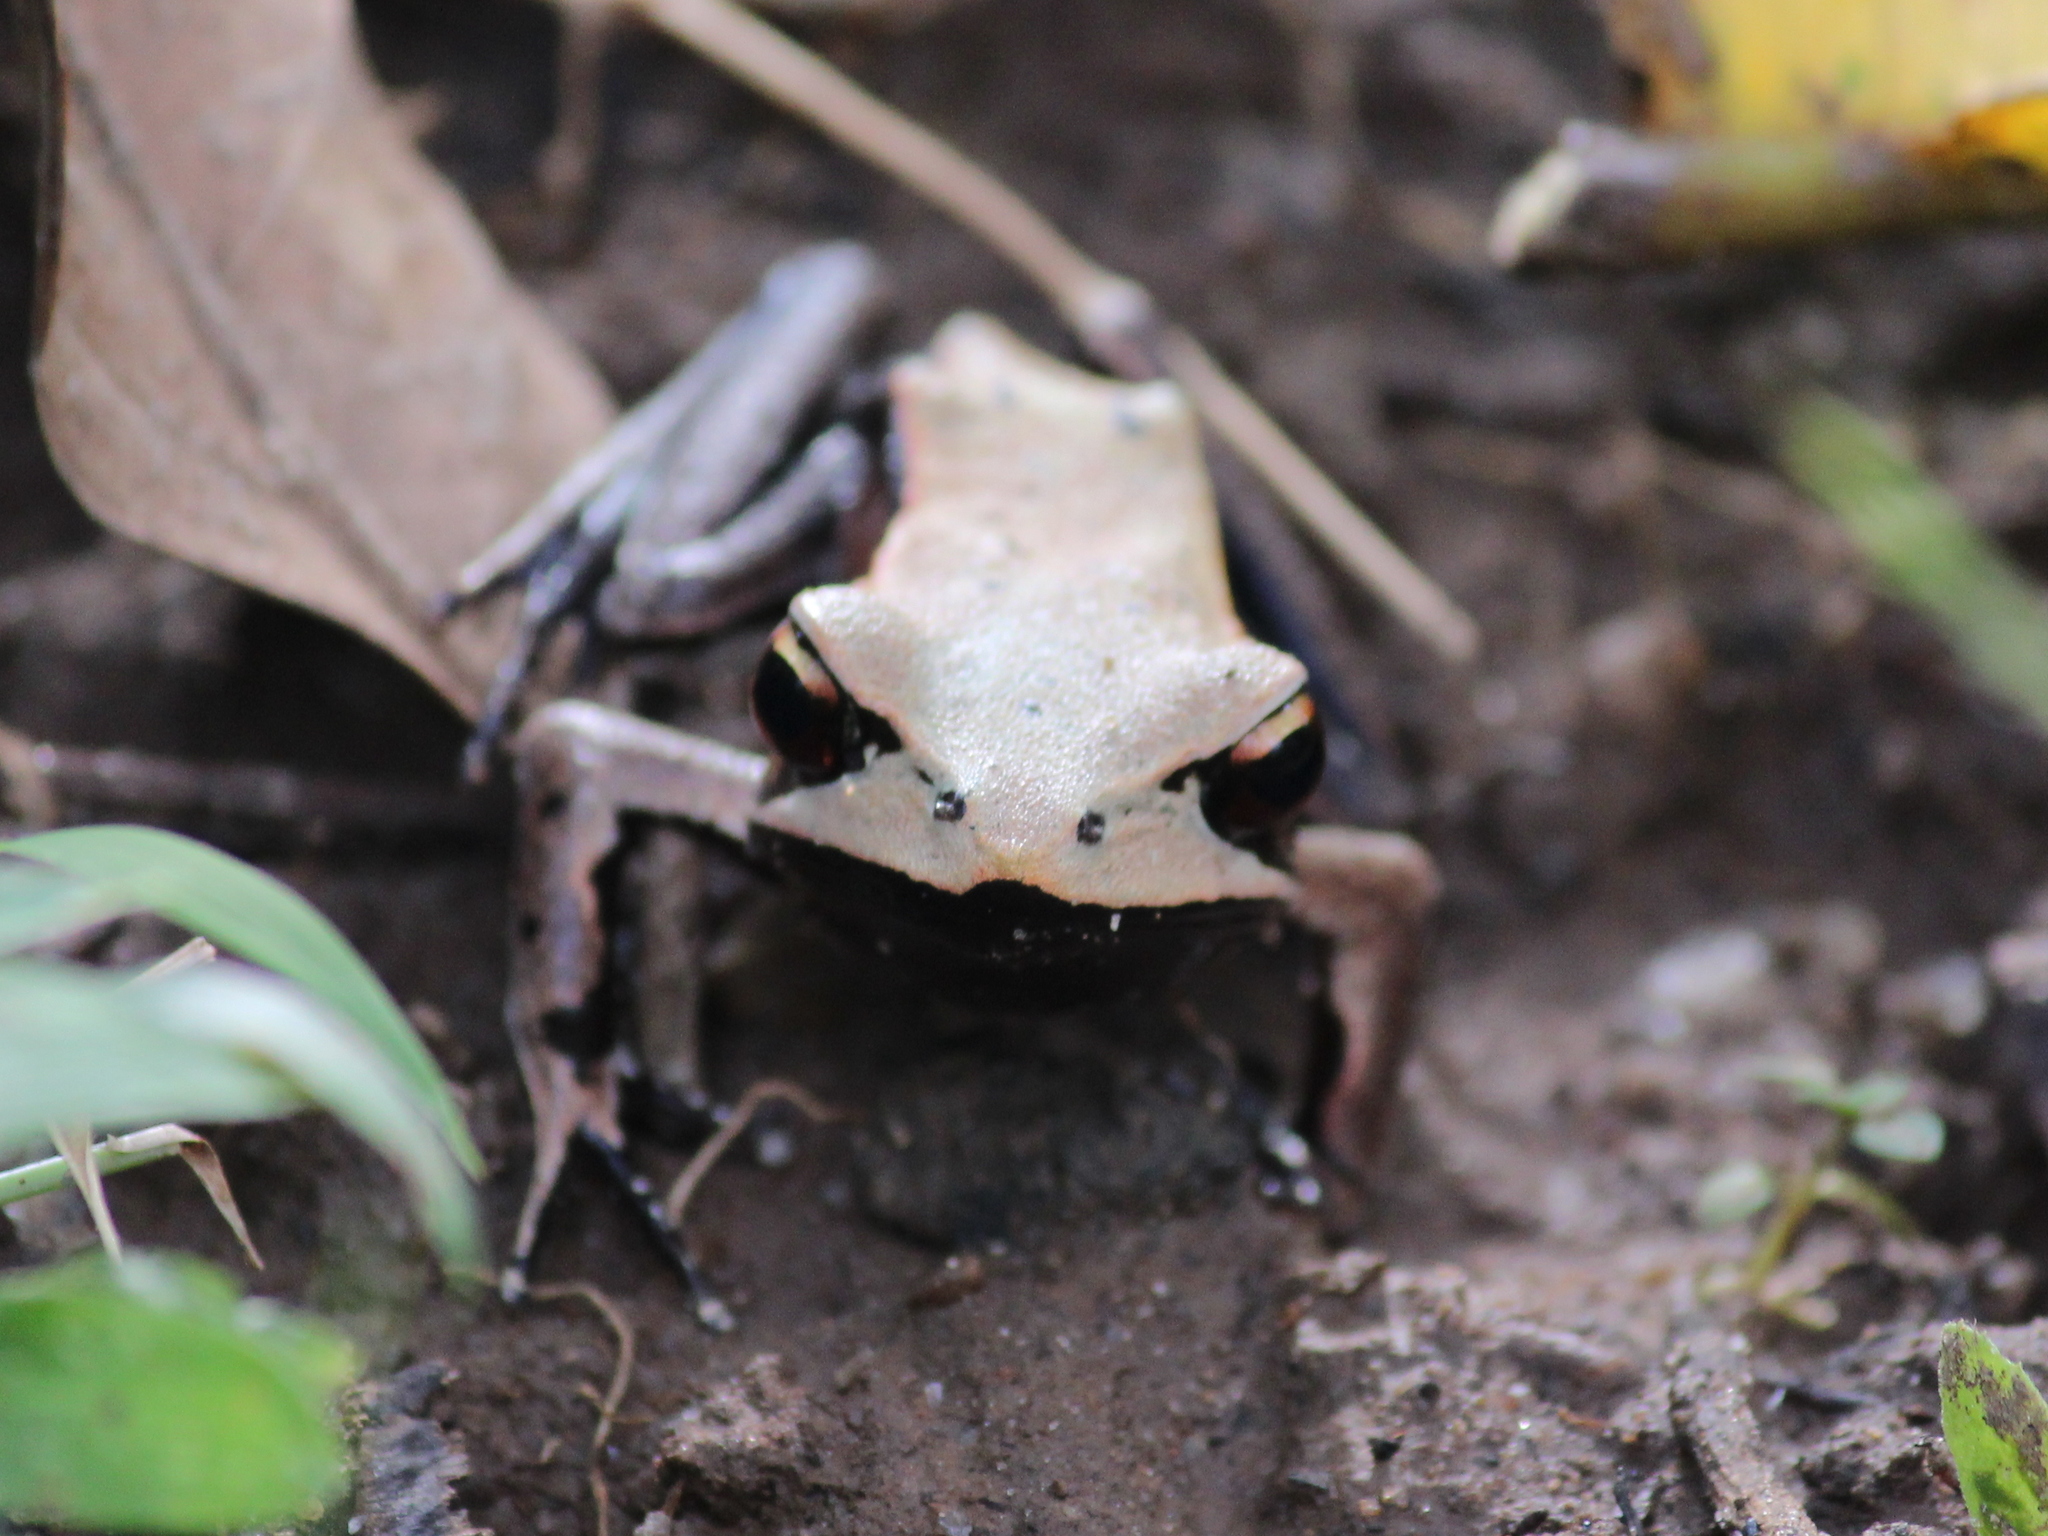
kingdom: Animalia
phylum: Chordata
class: Amphibia
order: Anura
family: Ranidae
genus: Clinotarsus
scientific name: Clinotarsus curtipes
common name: Bicoloured frog
